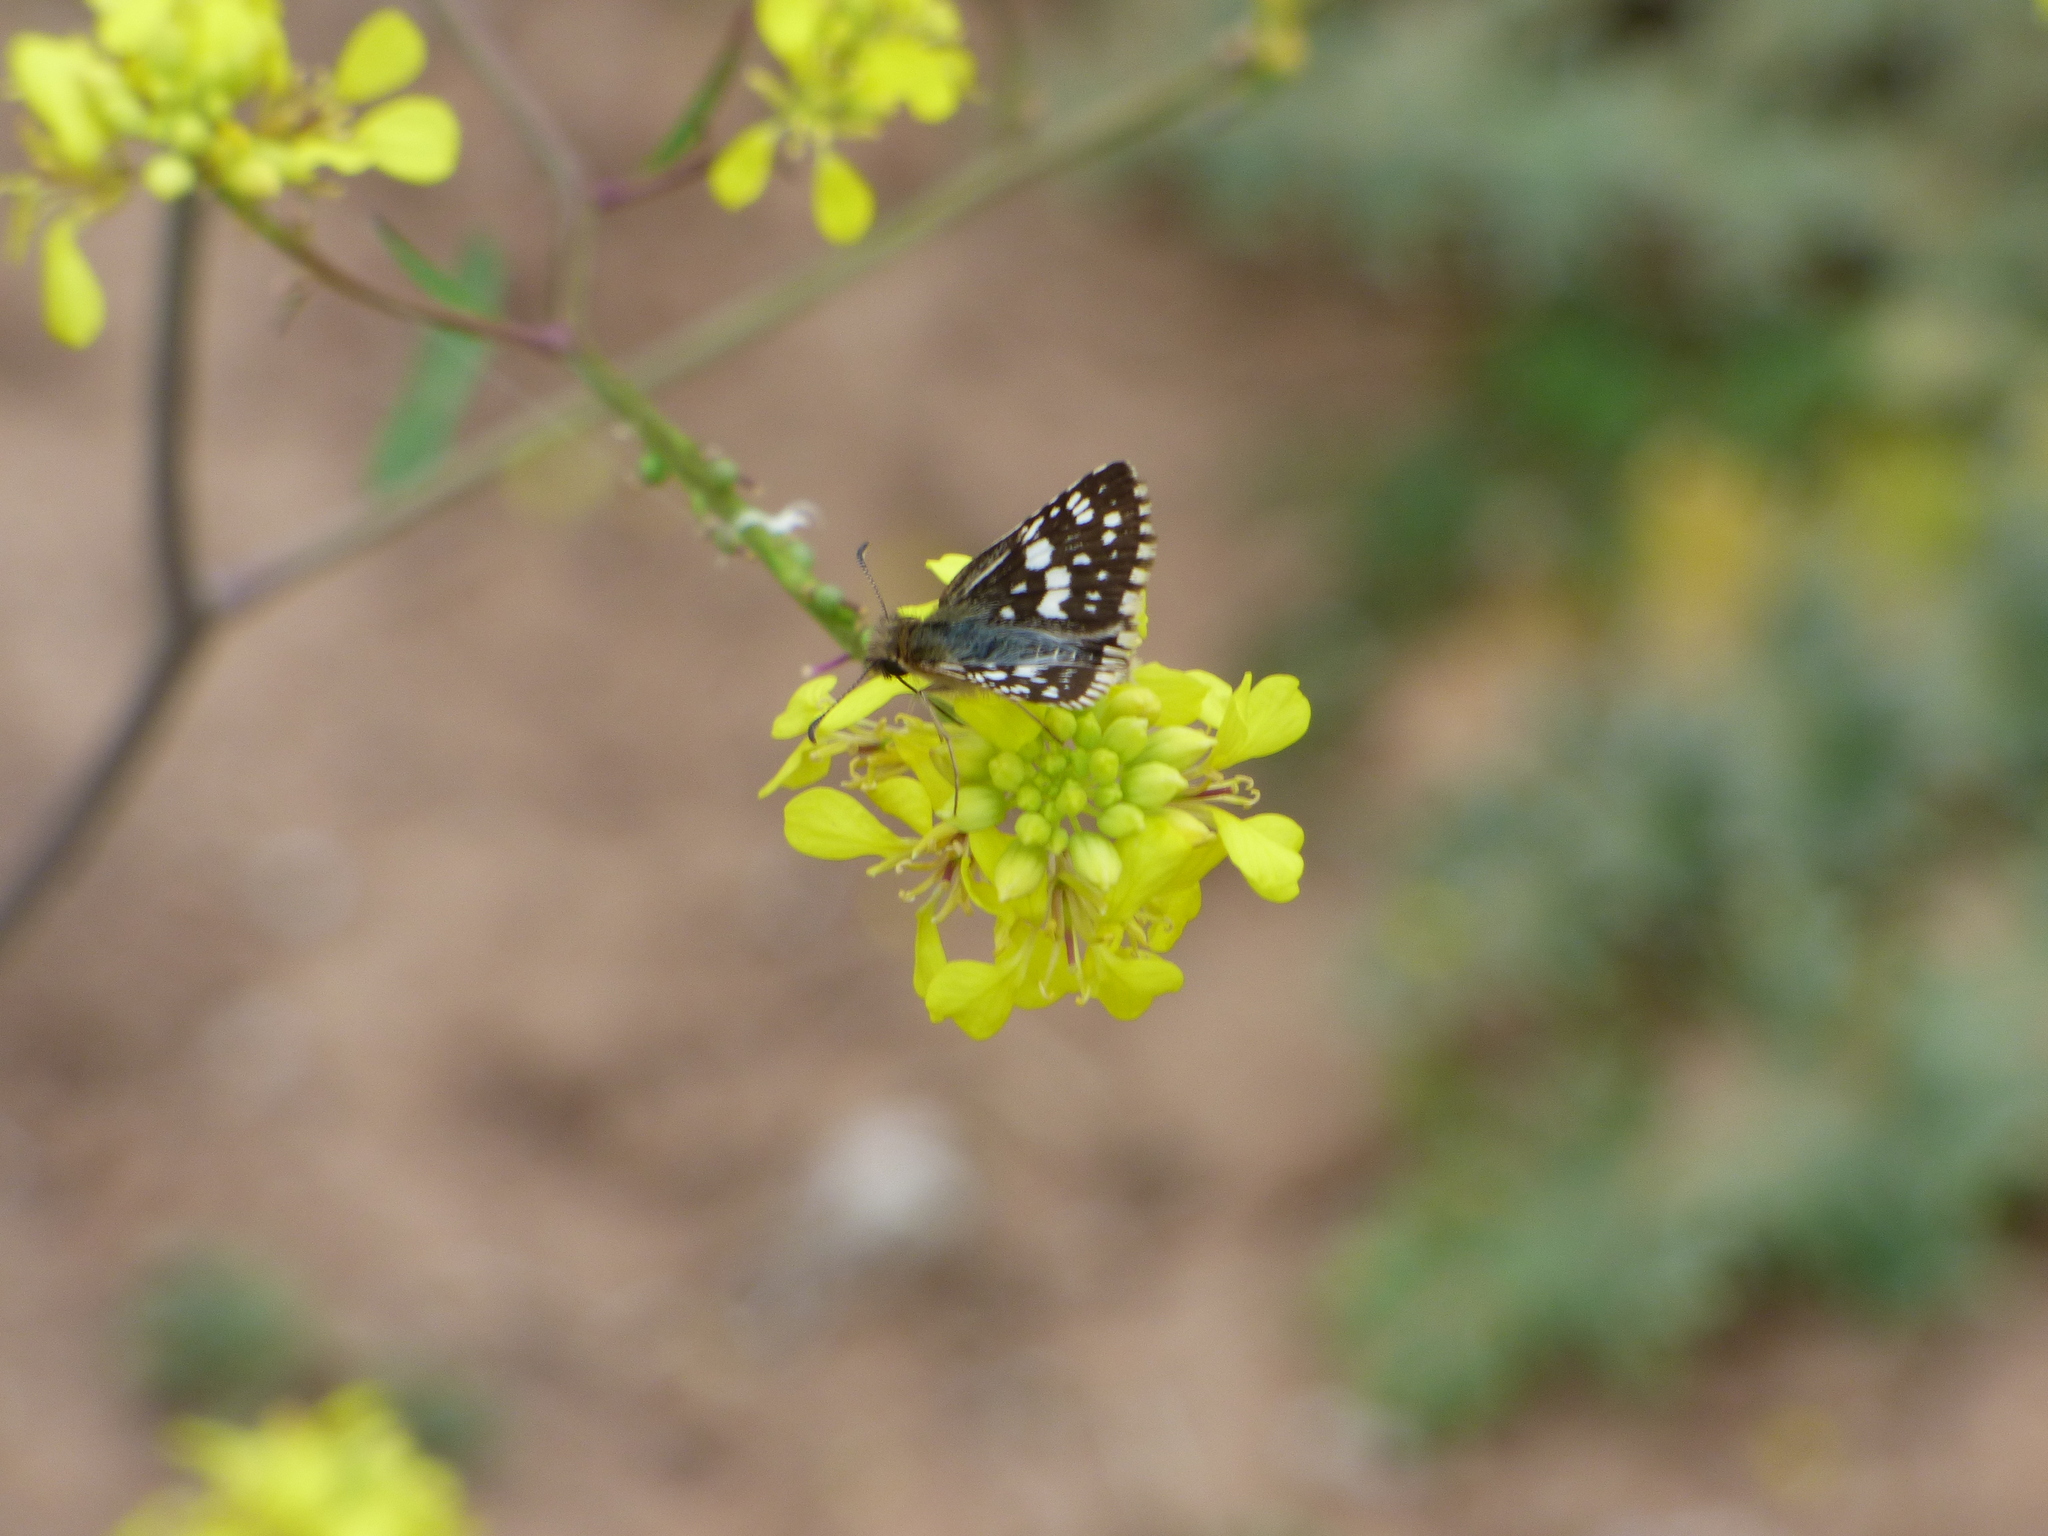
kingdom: Animalia
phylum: Arthropoda
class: Insecta
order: Lepidoptera
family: Hesperiidae
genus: Burnsius
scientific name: Burnsius orcynoides
